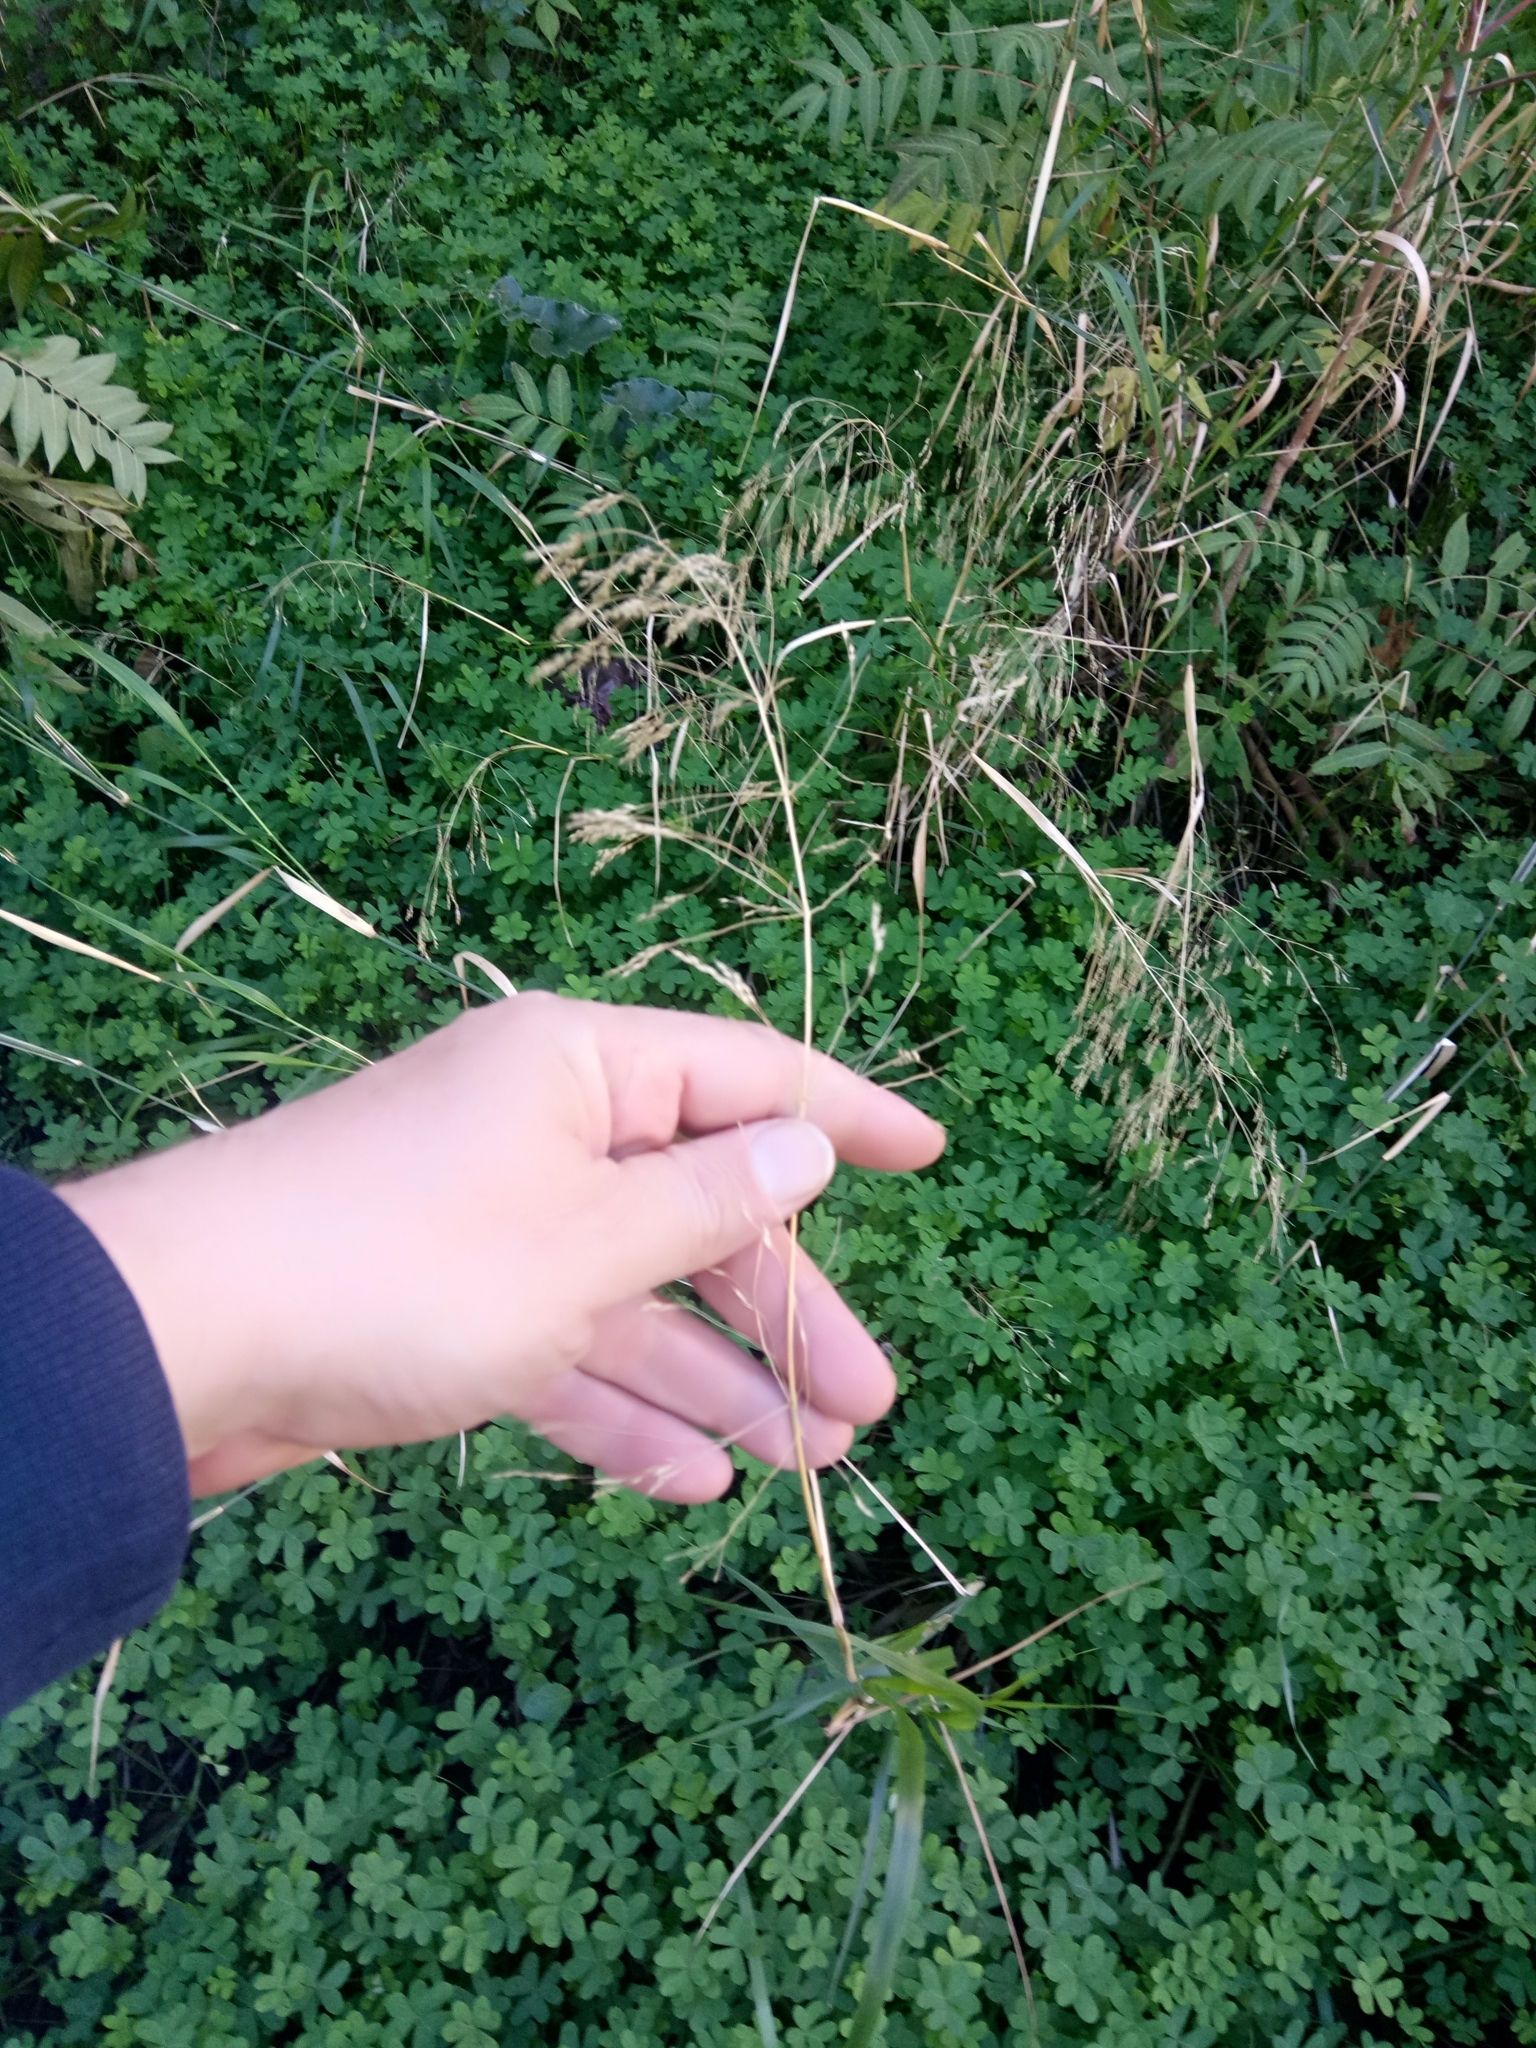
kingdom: Plantae
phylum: Tracheophyta
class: Liliopsida
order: Poales
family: Poaceae
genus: Oloptum
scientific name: Oloptum miliaceum
